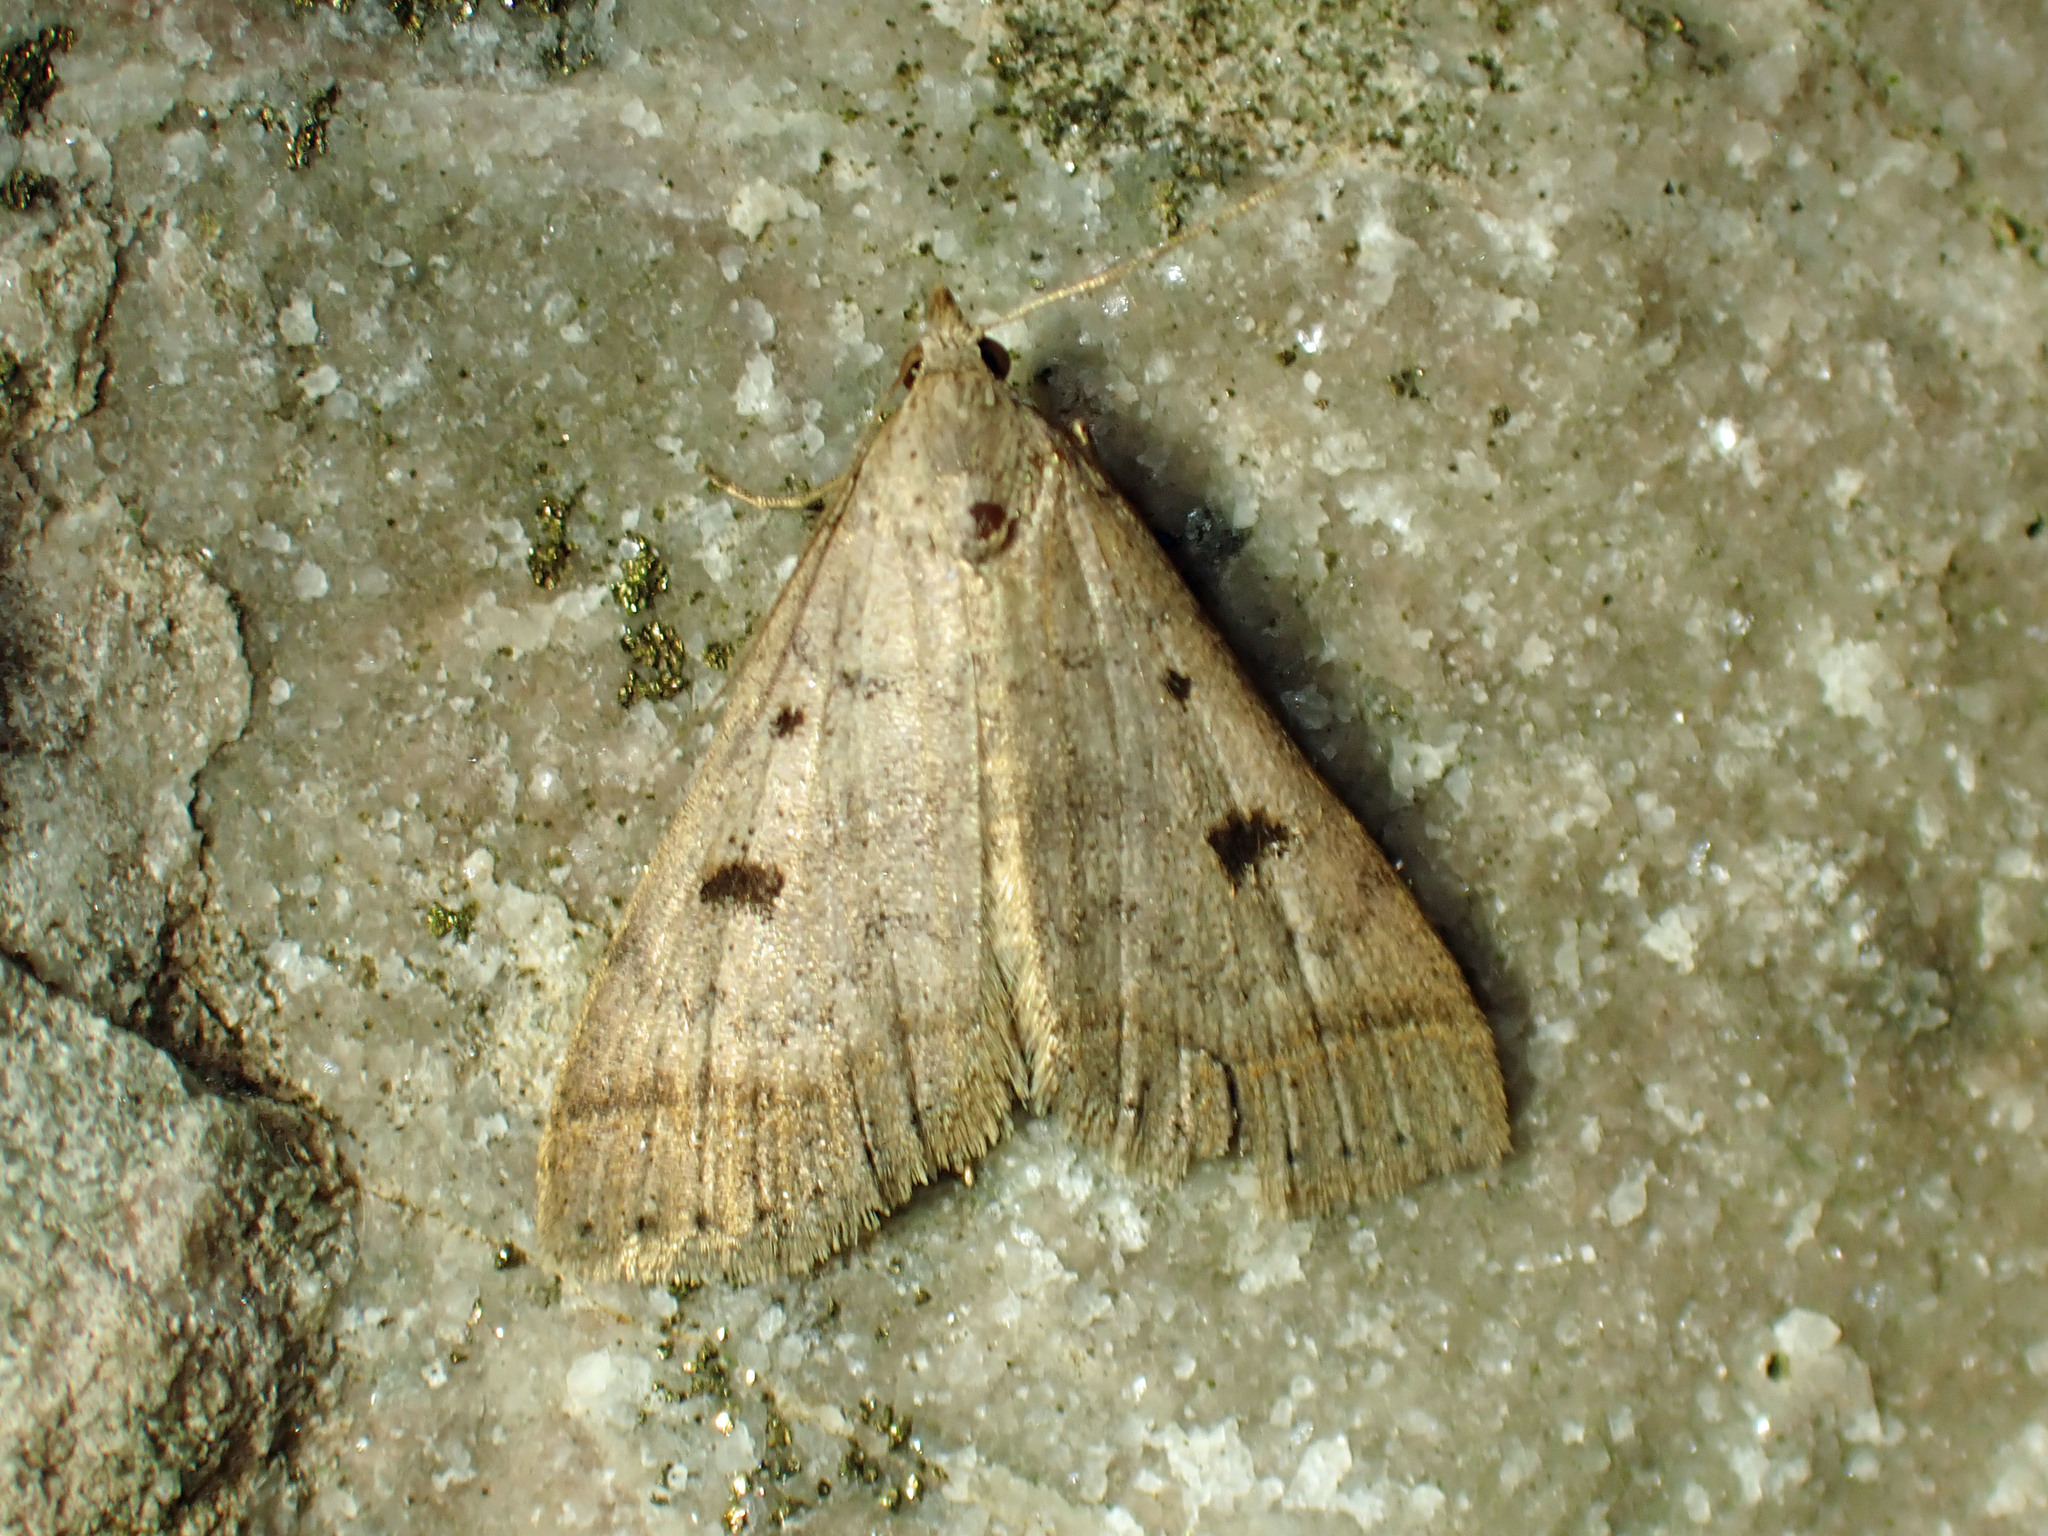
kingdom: Animalia
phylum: Arthropoda
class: Insecta
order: Lepidoptera
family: Erebidae
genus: Bleptina
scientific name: Bleptina caradrinalis
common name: Bent-winged owlet
